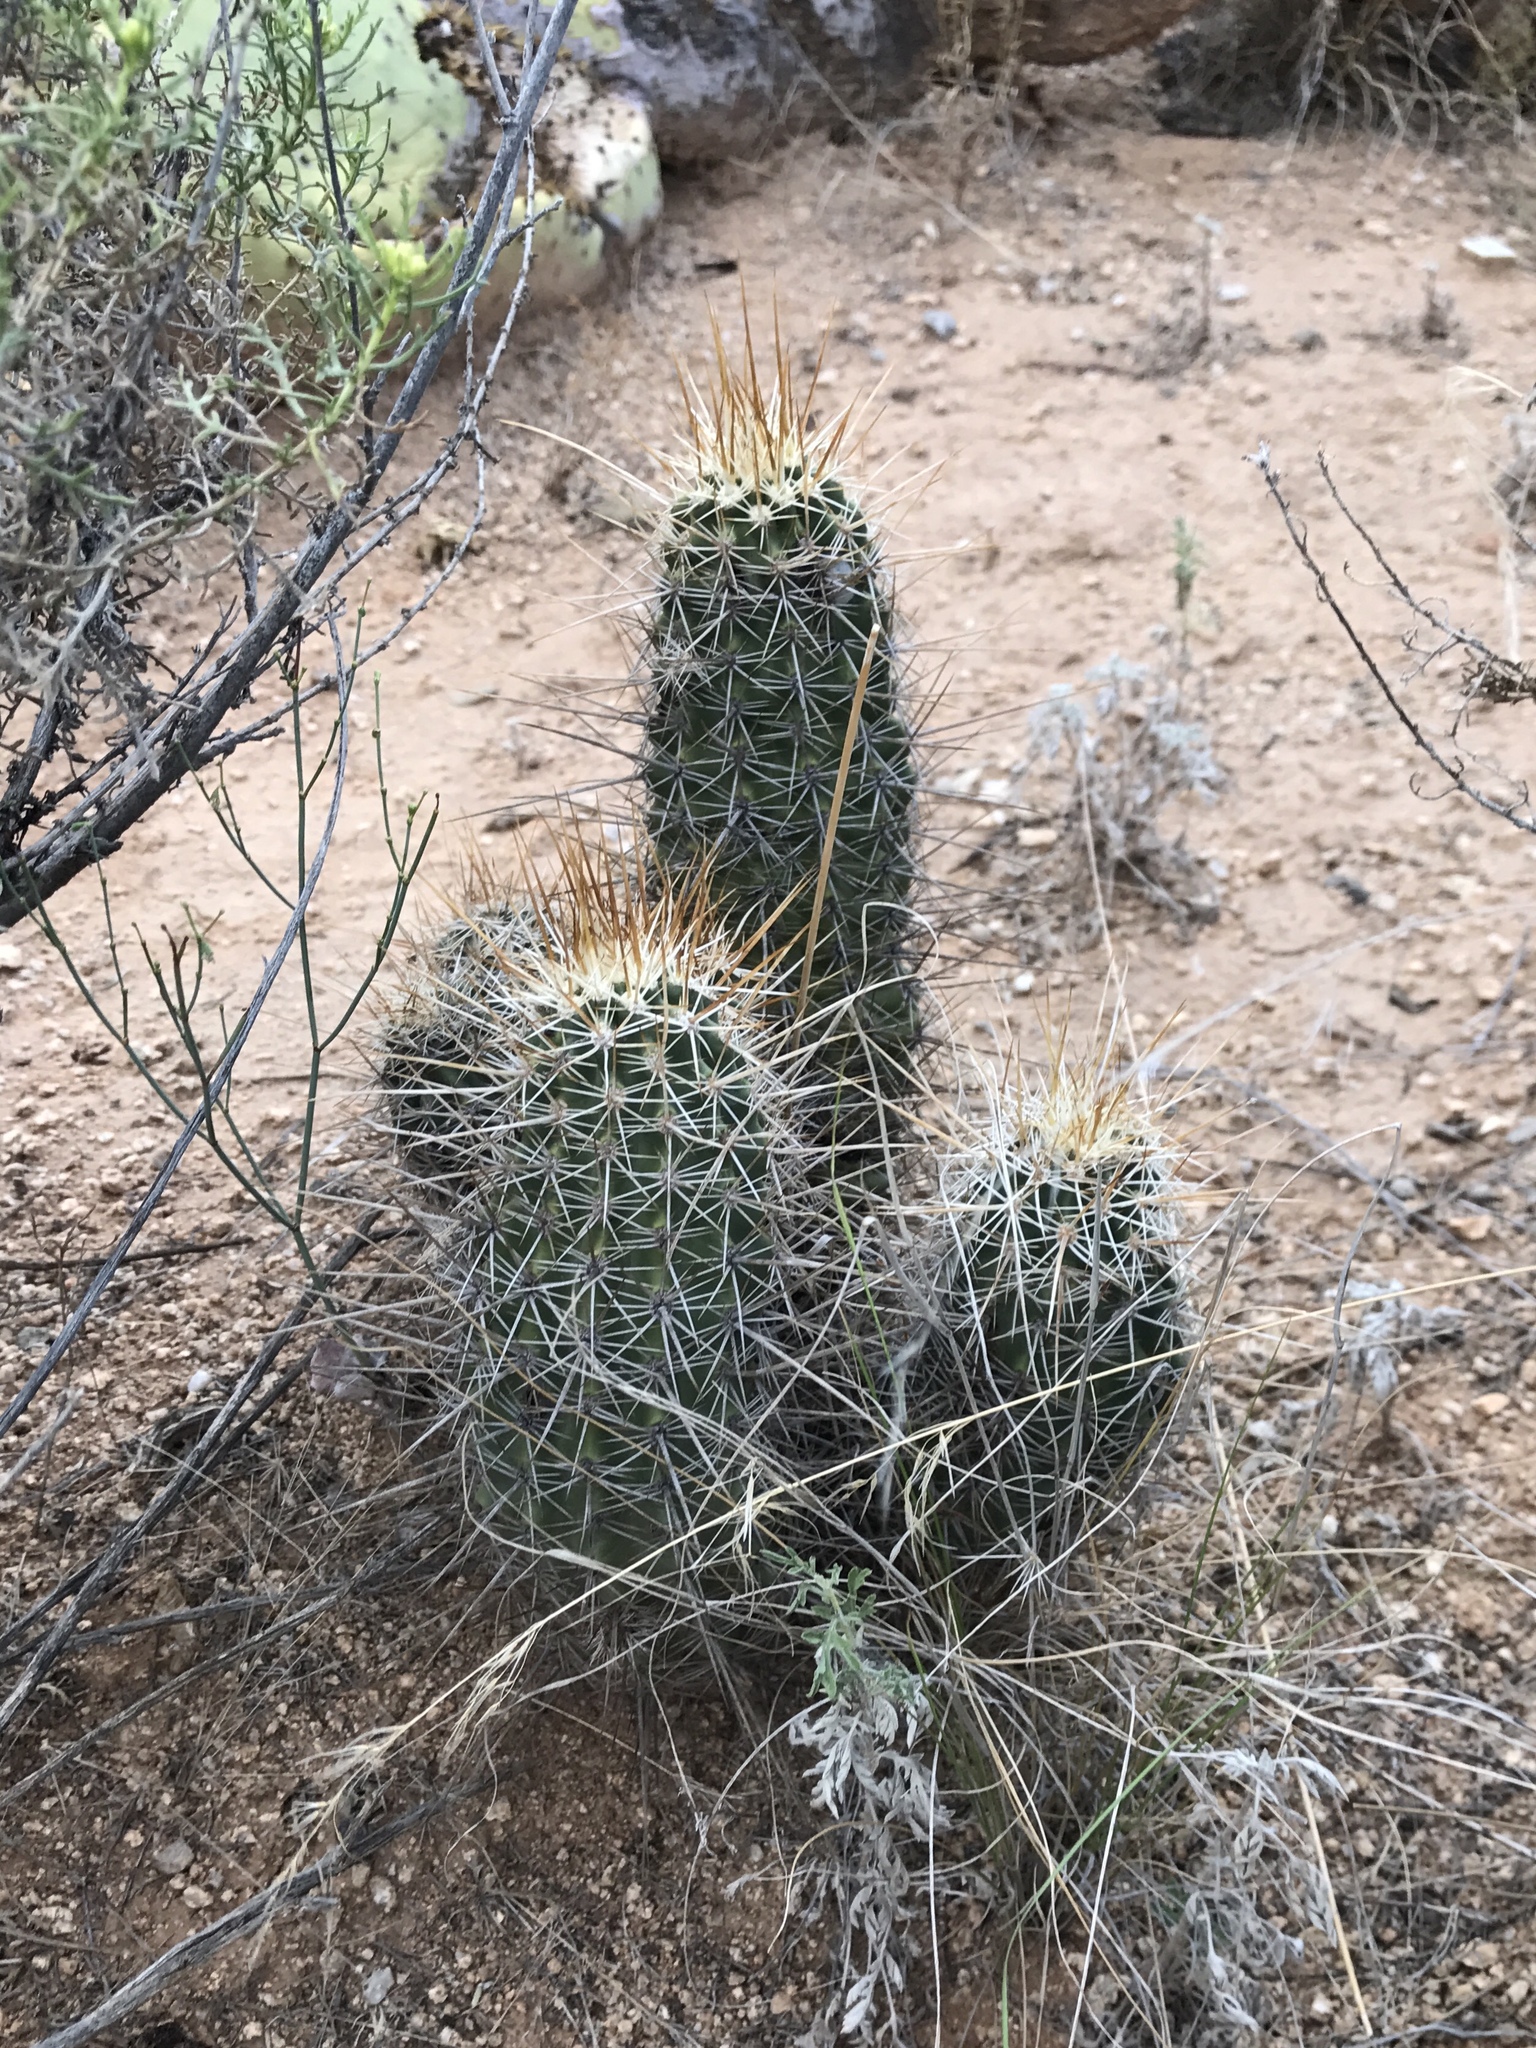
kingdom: Plantae
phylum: Tracheophyta
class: Magnoliopsida
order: Caryophyllales
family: Cactaceae
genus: Echinocereus
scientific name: Echinocereus fasciculatus
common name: Bundle hedgehog
